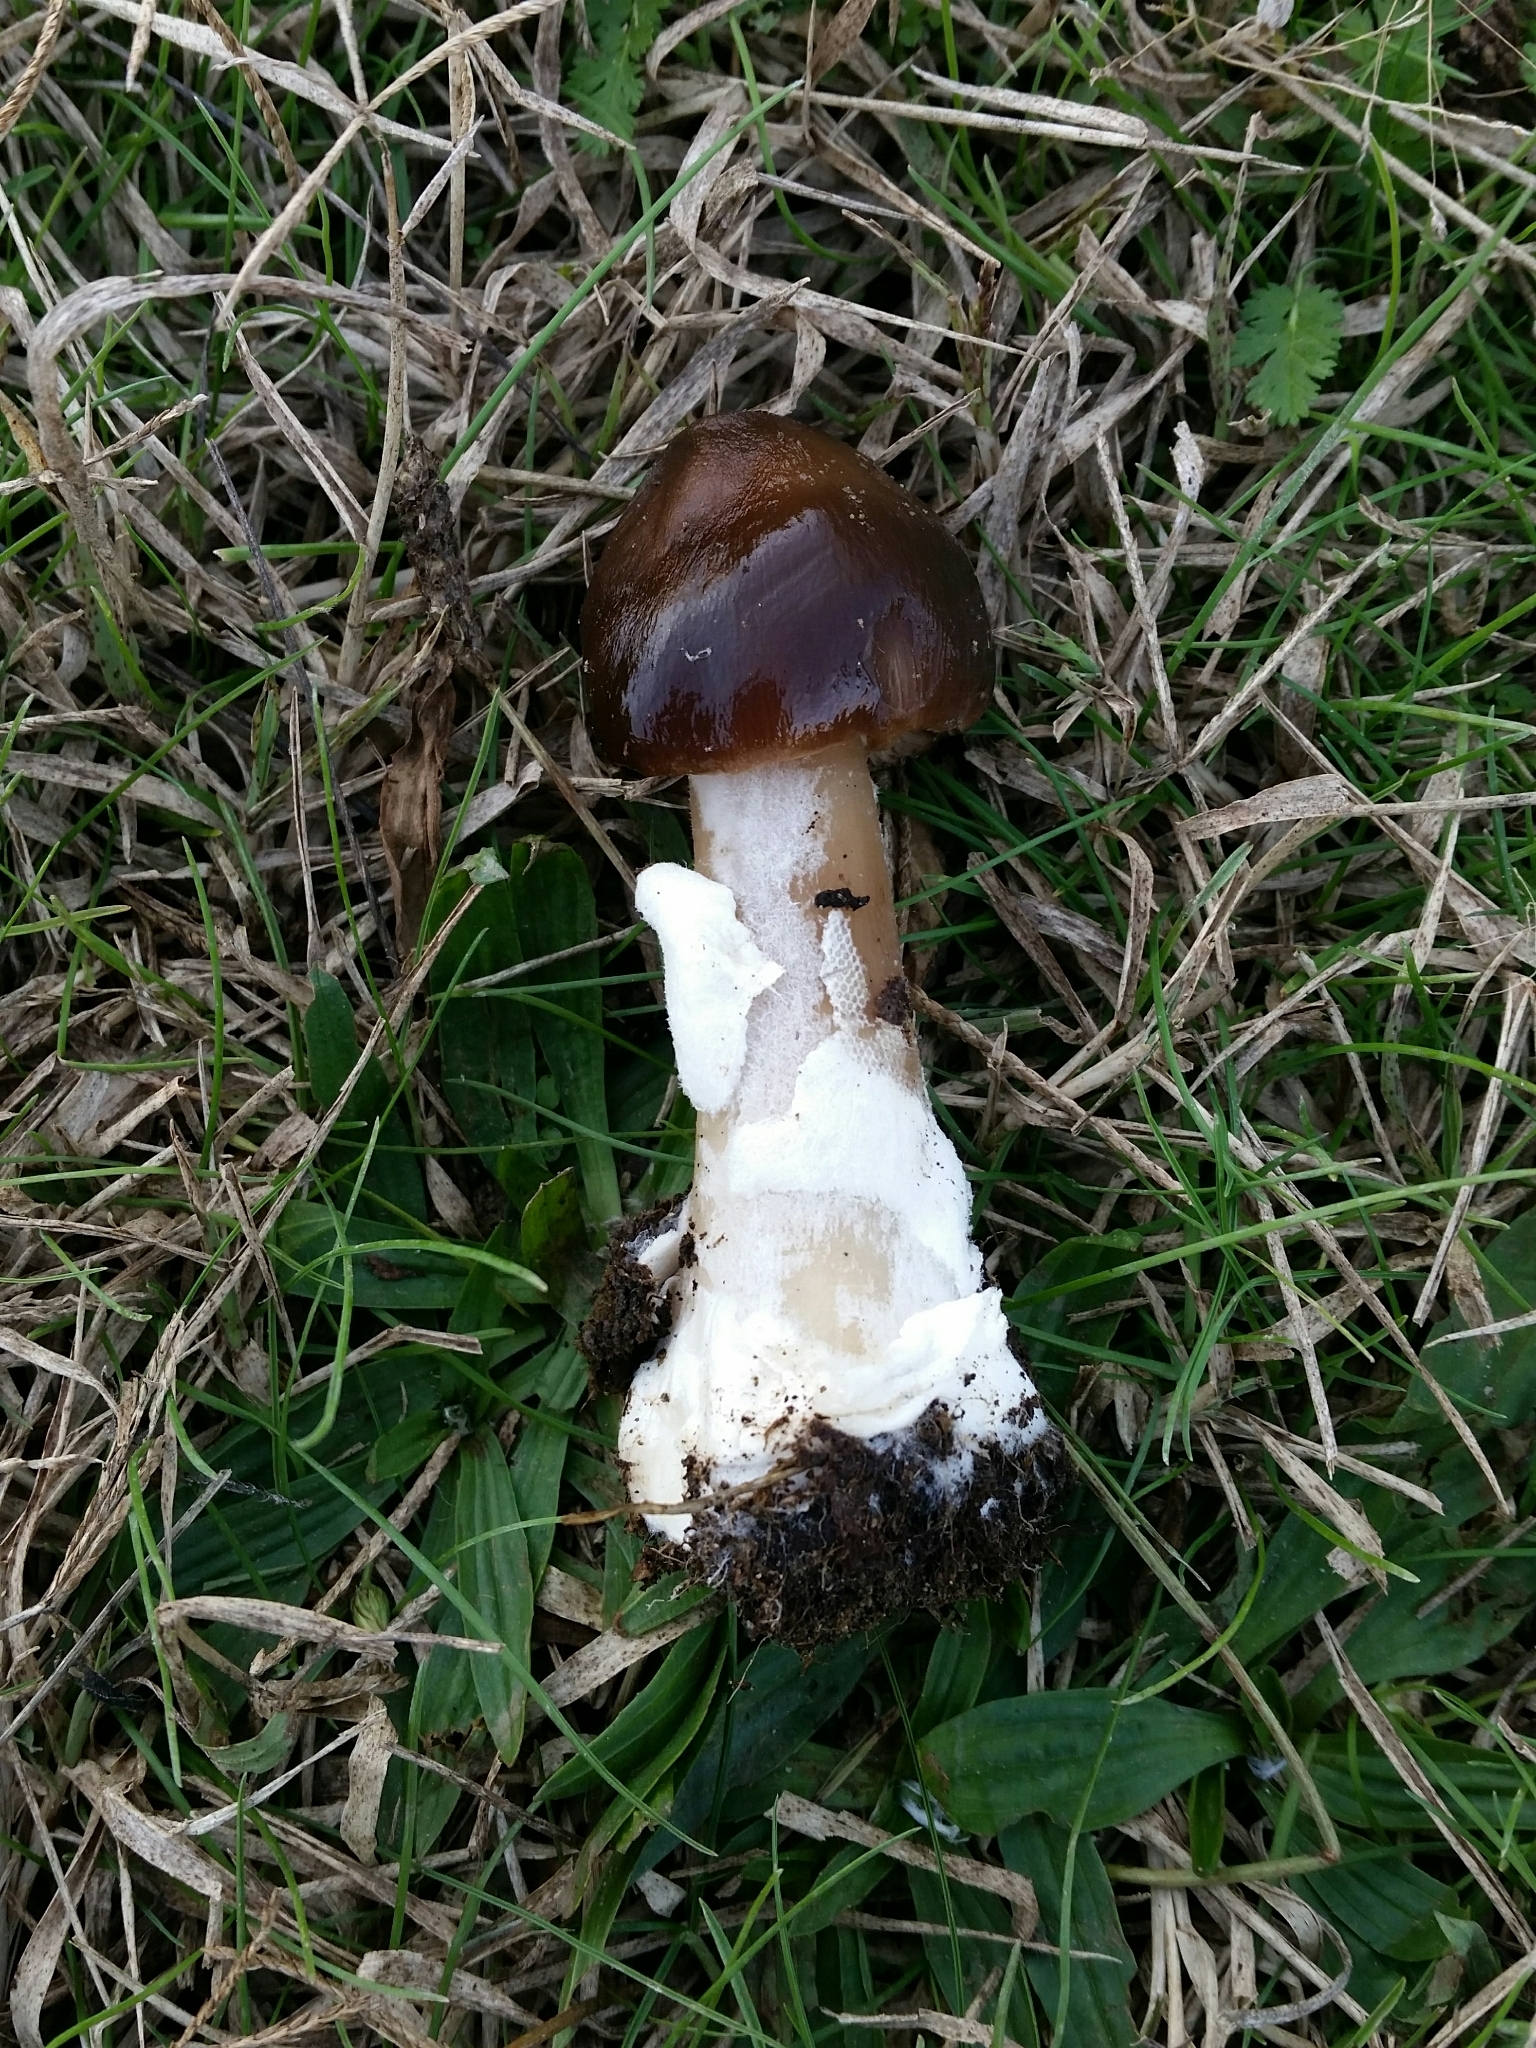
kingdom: Fungi
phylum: Basidiomycota
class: Agaricomycetes
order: Agaricales
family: Pluteaceae
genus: Volvopluteus
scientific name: Volvopluteus gloiocephalus
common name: Stubble rosegill
